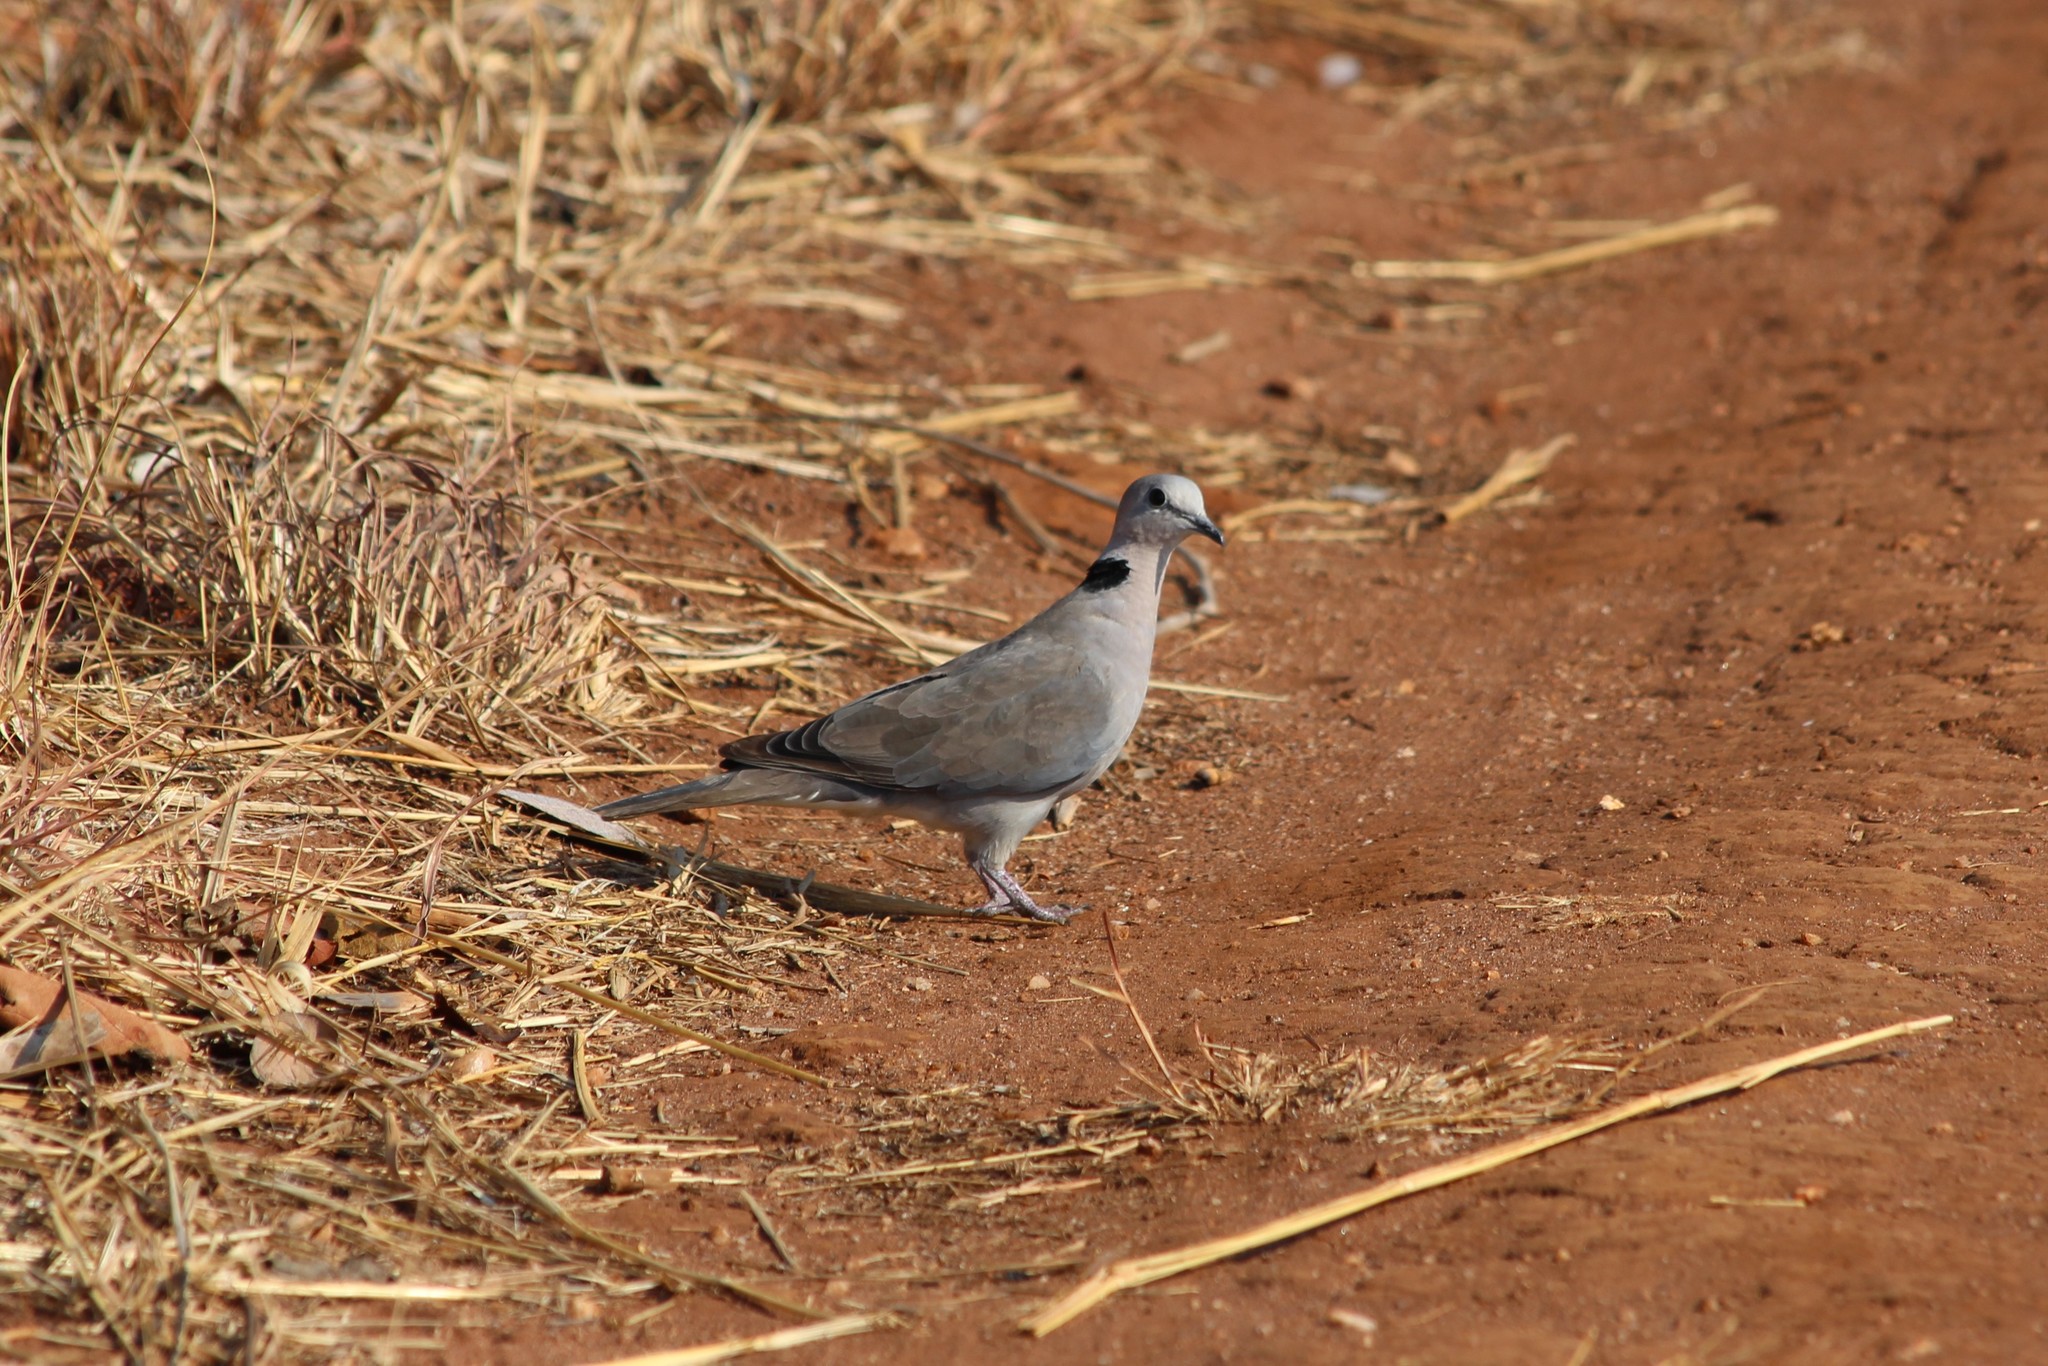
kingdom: Animalia
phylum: Chordata
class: Aves
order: Columbiformes
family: Columbidae
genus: Streptopelia
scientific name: Streptopelia capicola
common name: Ring-necked dove
